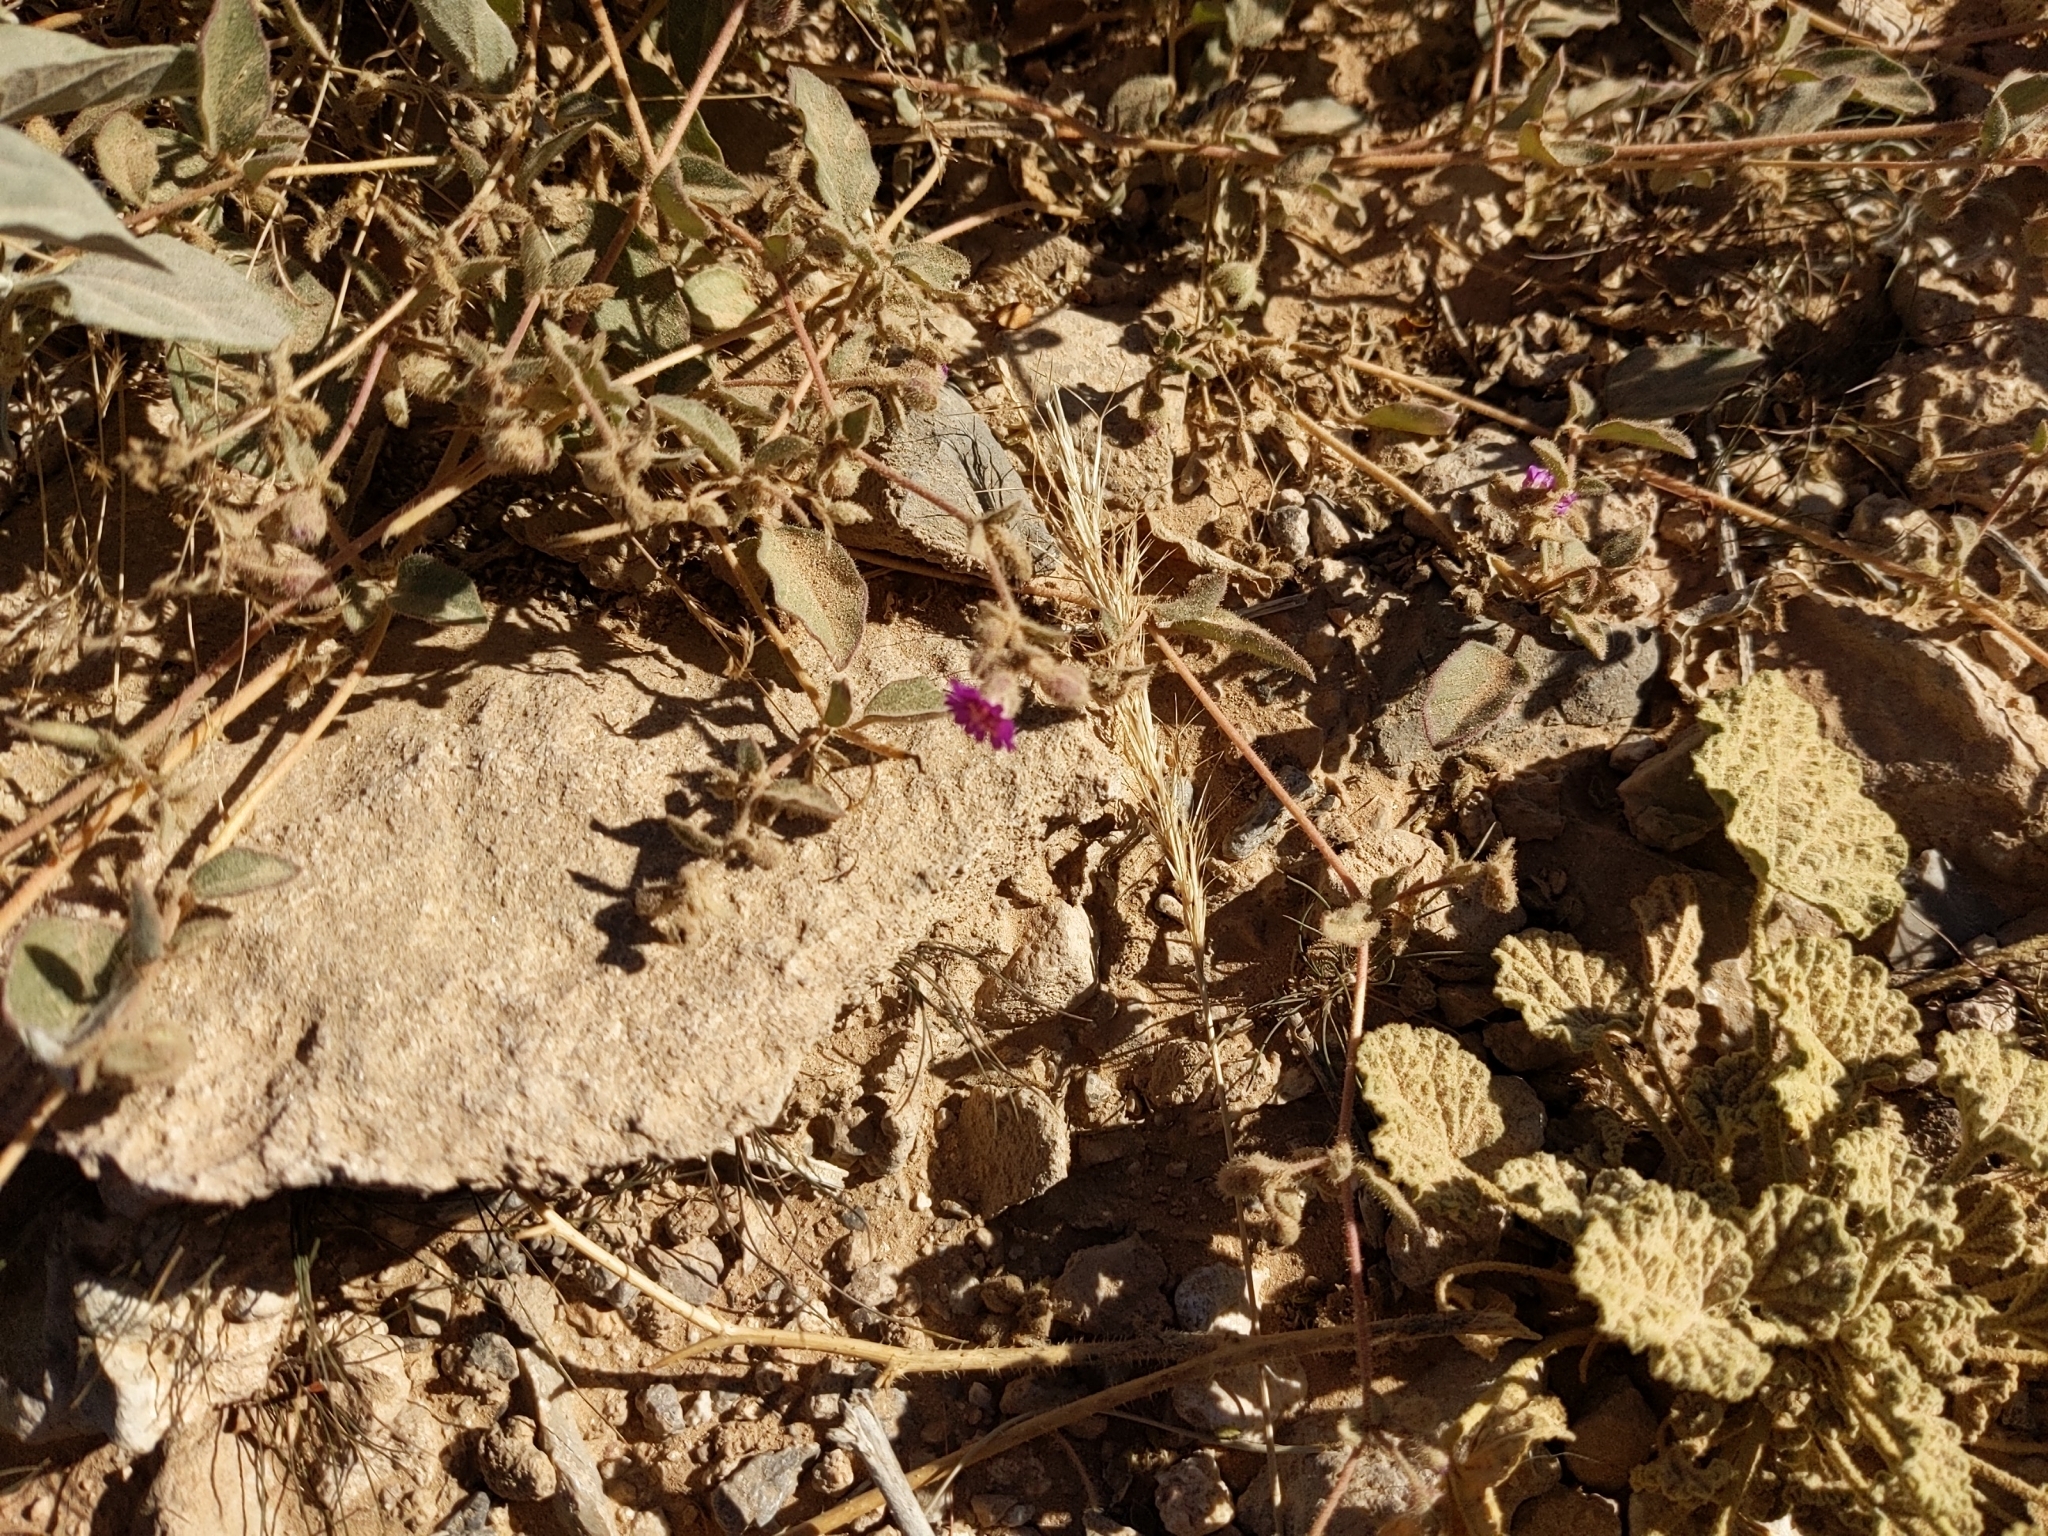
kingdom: Plantae
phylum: Tracheophyta
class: Magnoliopsida
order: Caryophyllales
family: Nyctaginaceae
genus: Allionia
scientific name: Allionia incarnata
